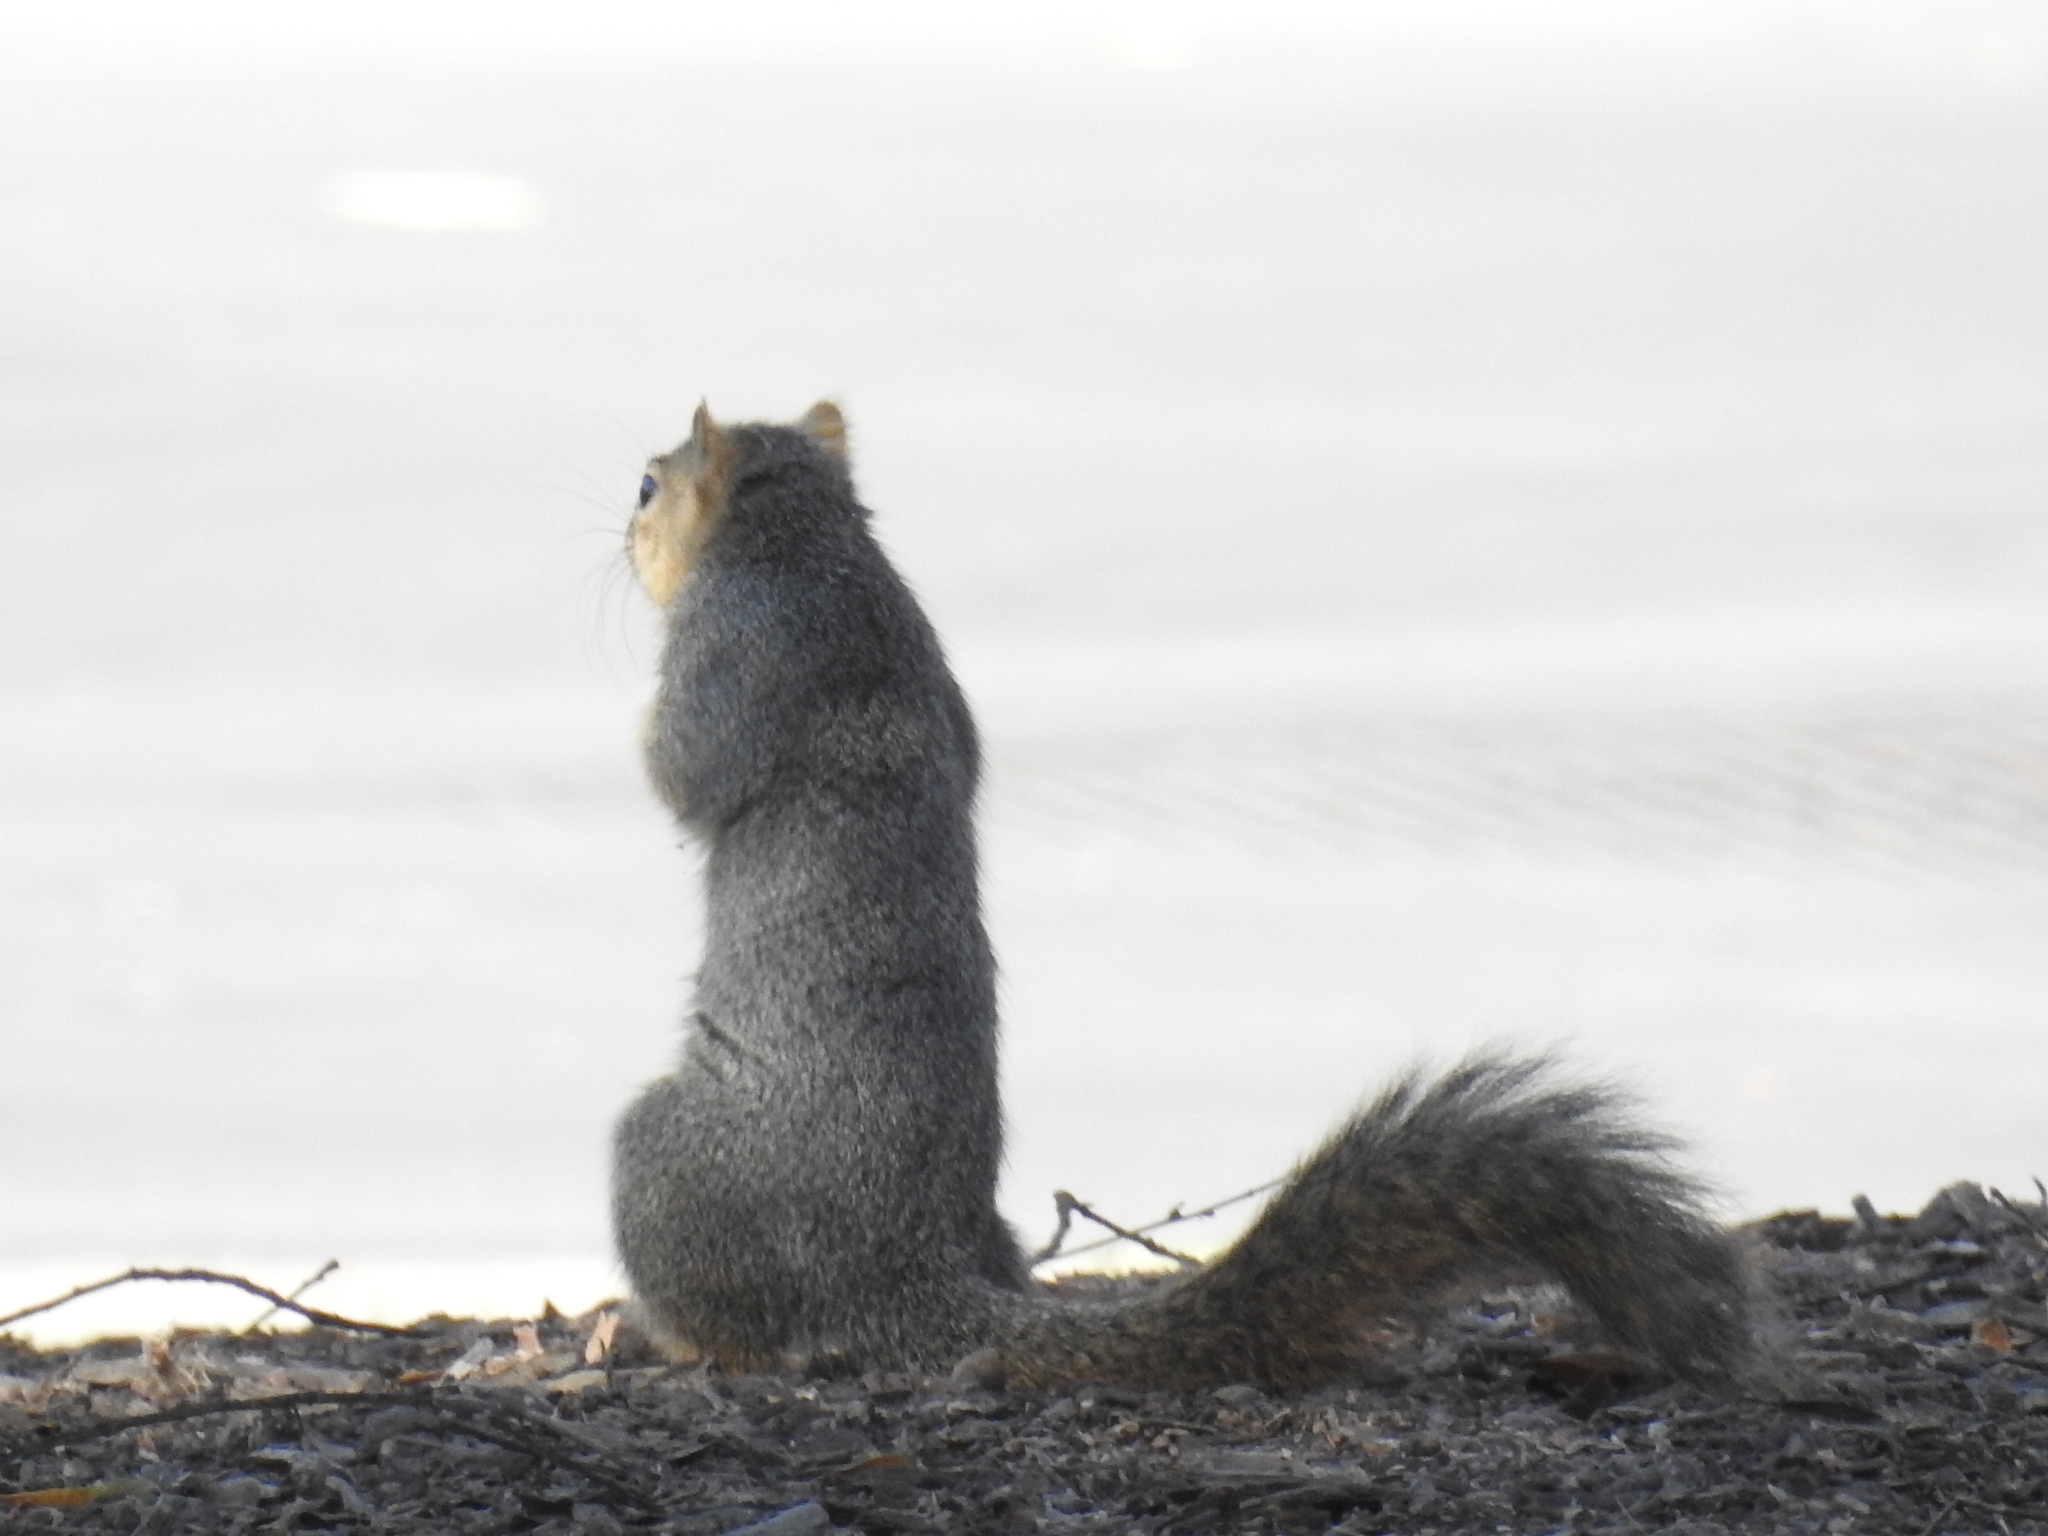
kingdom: Animalia
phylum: Chordata
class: Mammalia
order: Rodentia
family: Sciuridae
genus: Sciurus
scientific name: Sciurus niger
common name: Fox squirrel
